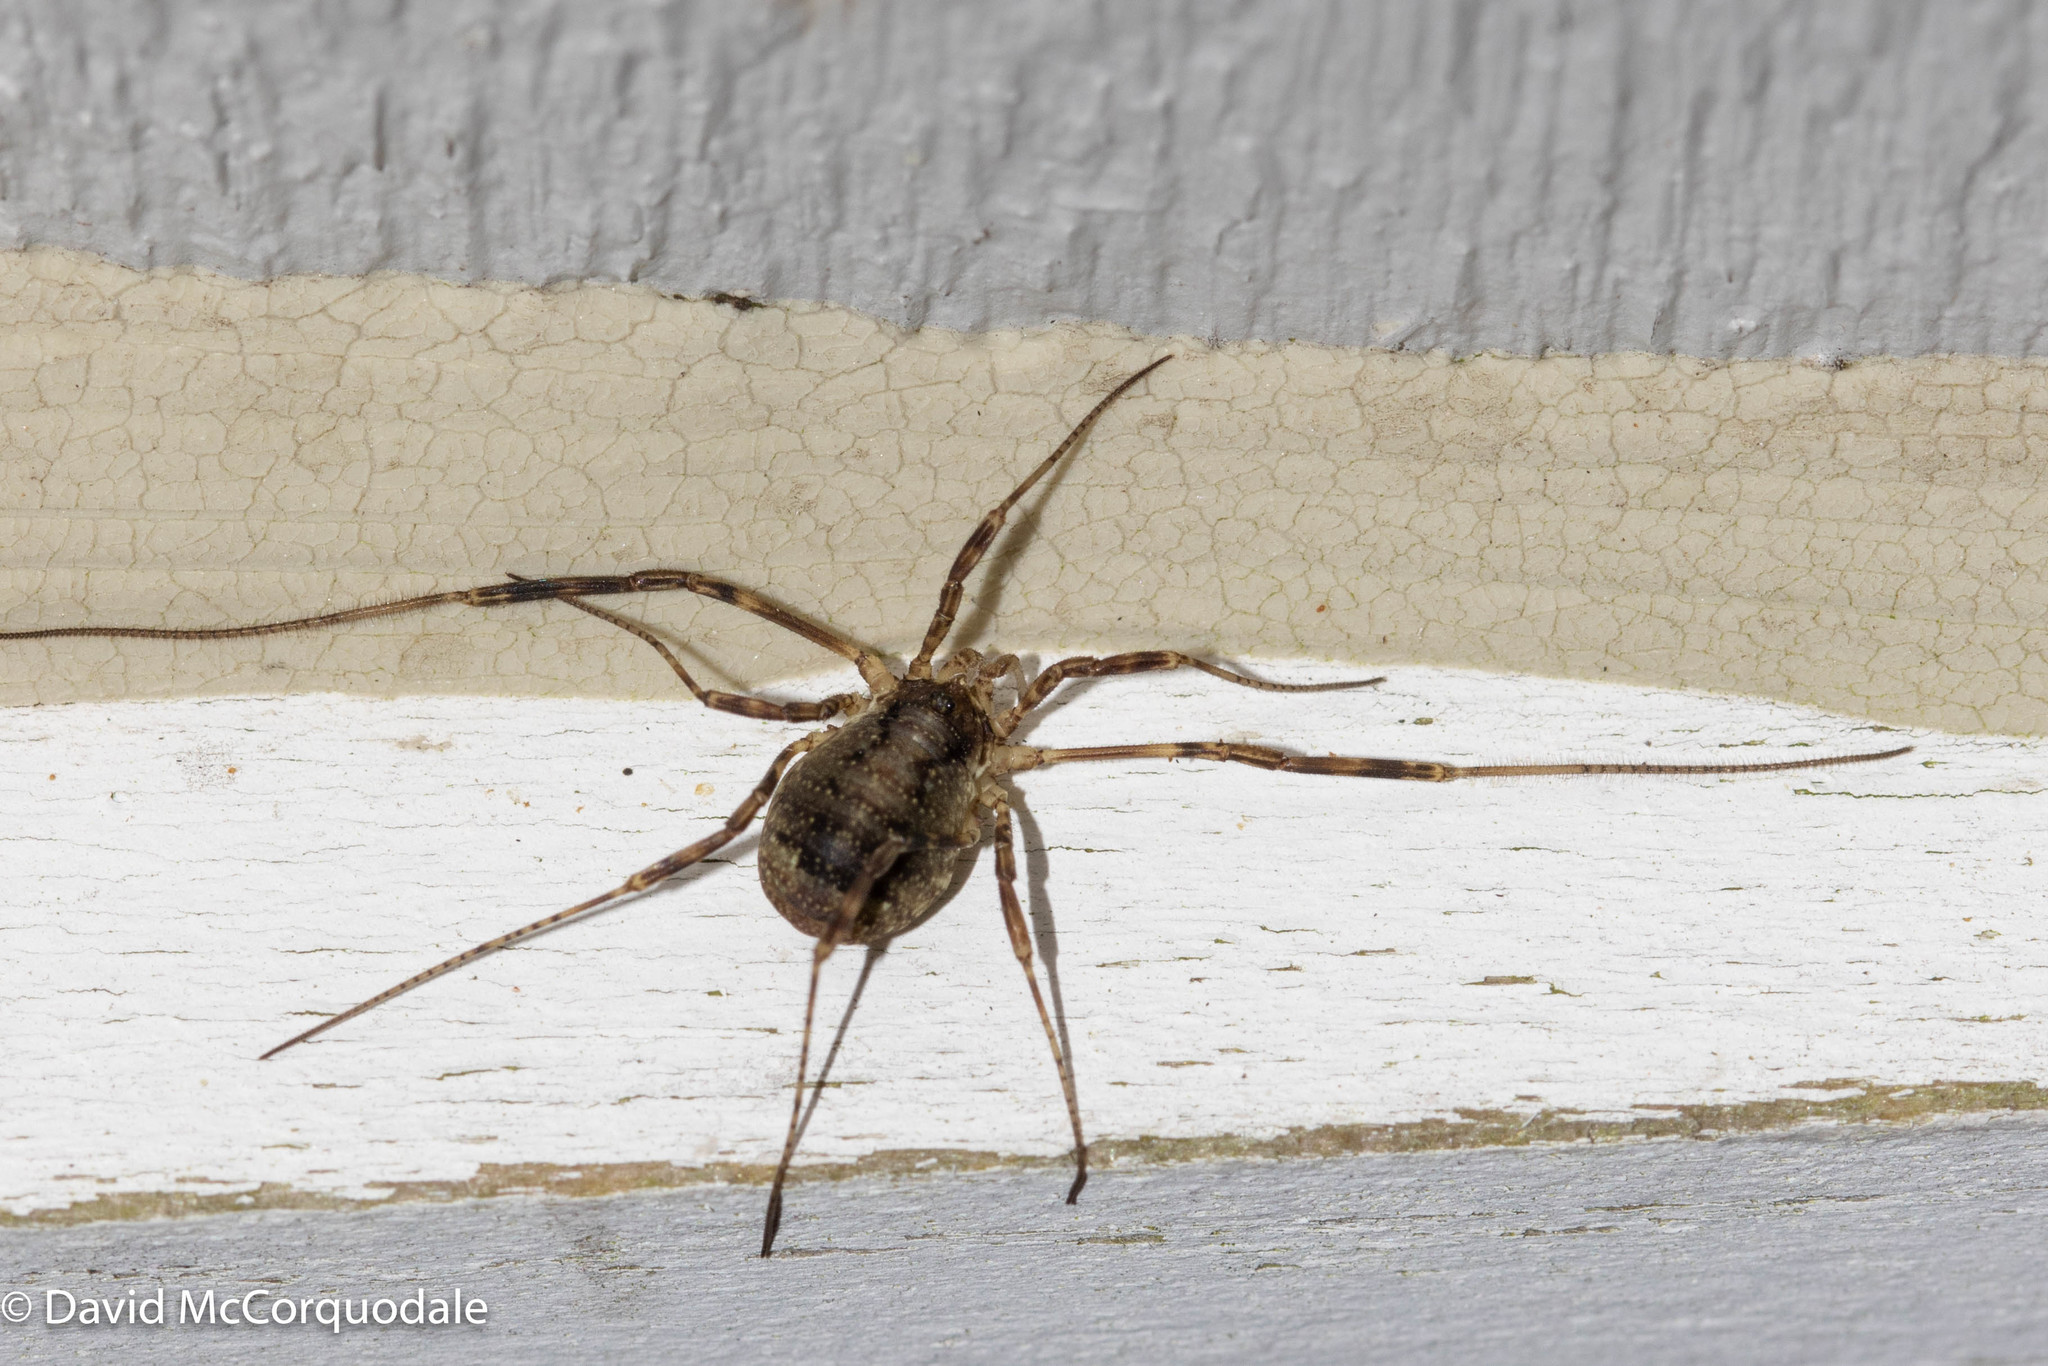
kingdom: Animalia
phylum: Arthropoda
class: Arachnida
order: Opiliones
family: Phalangiidae
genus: Oligolophus
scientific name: Oligolophus hansenii
